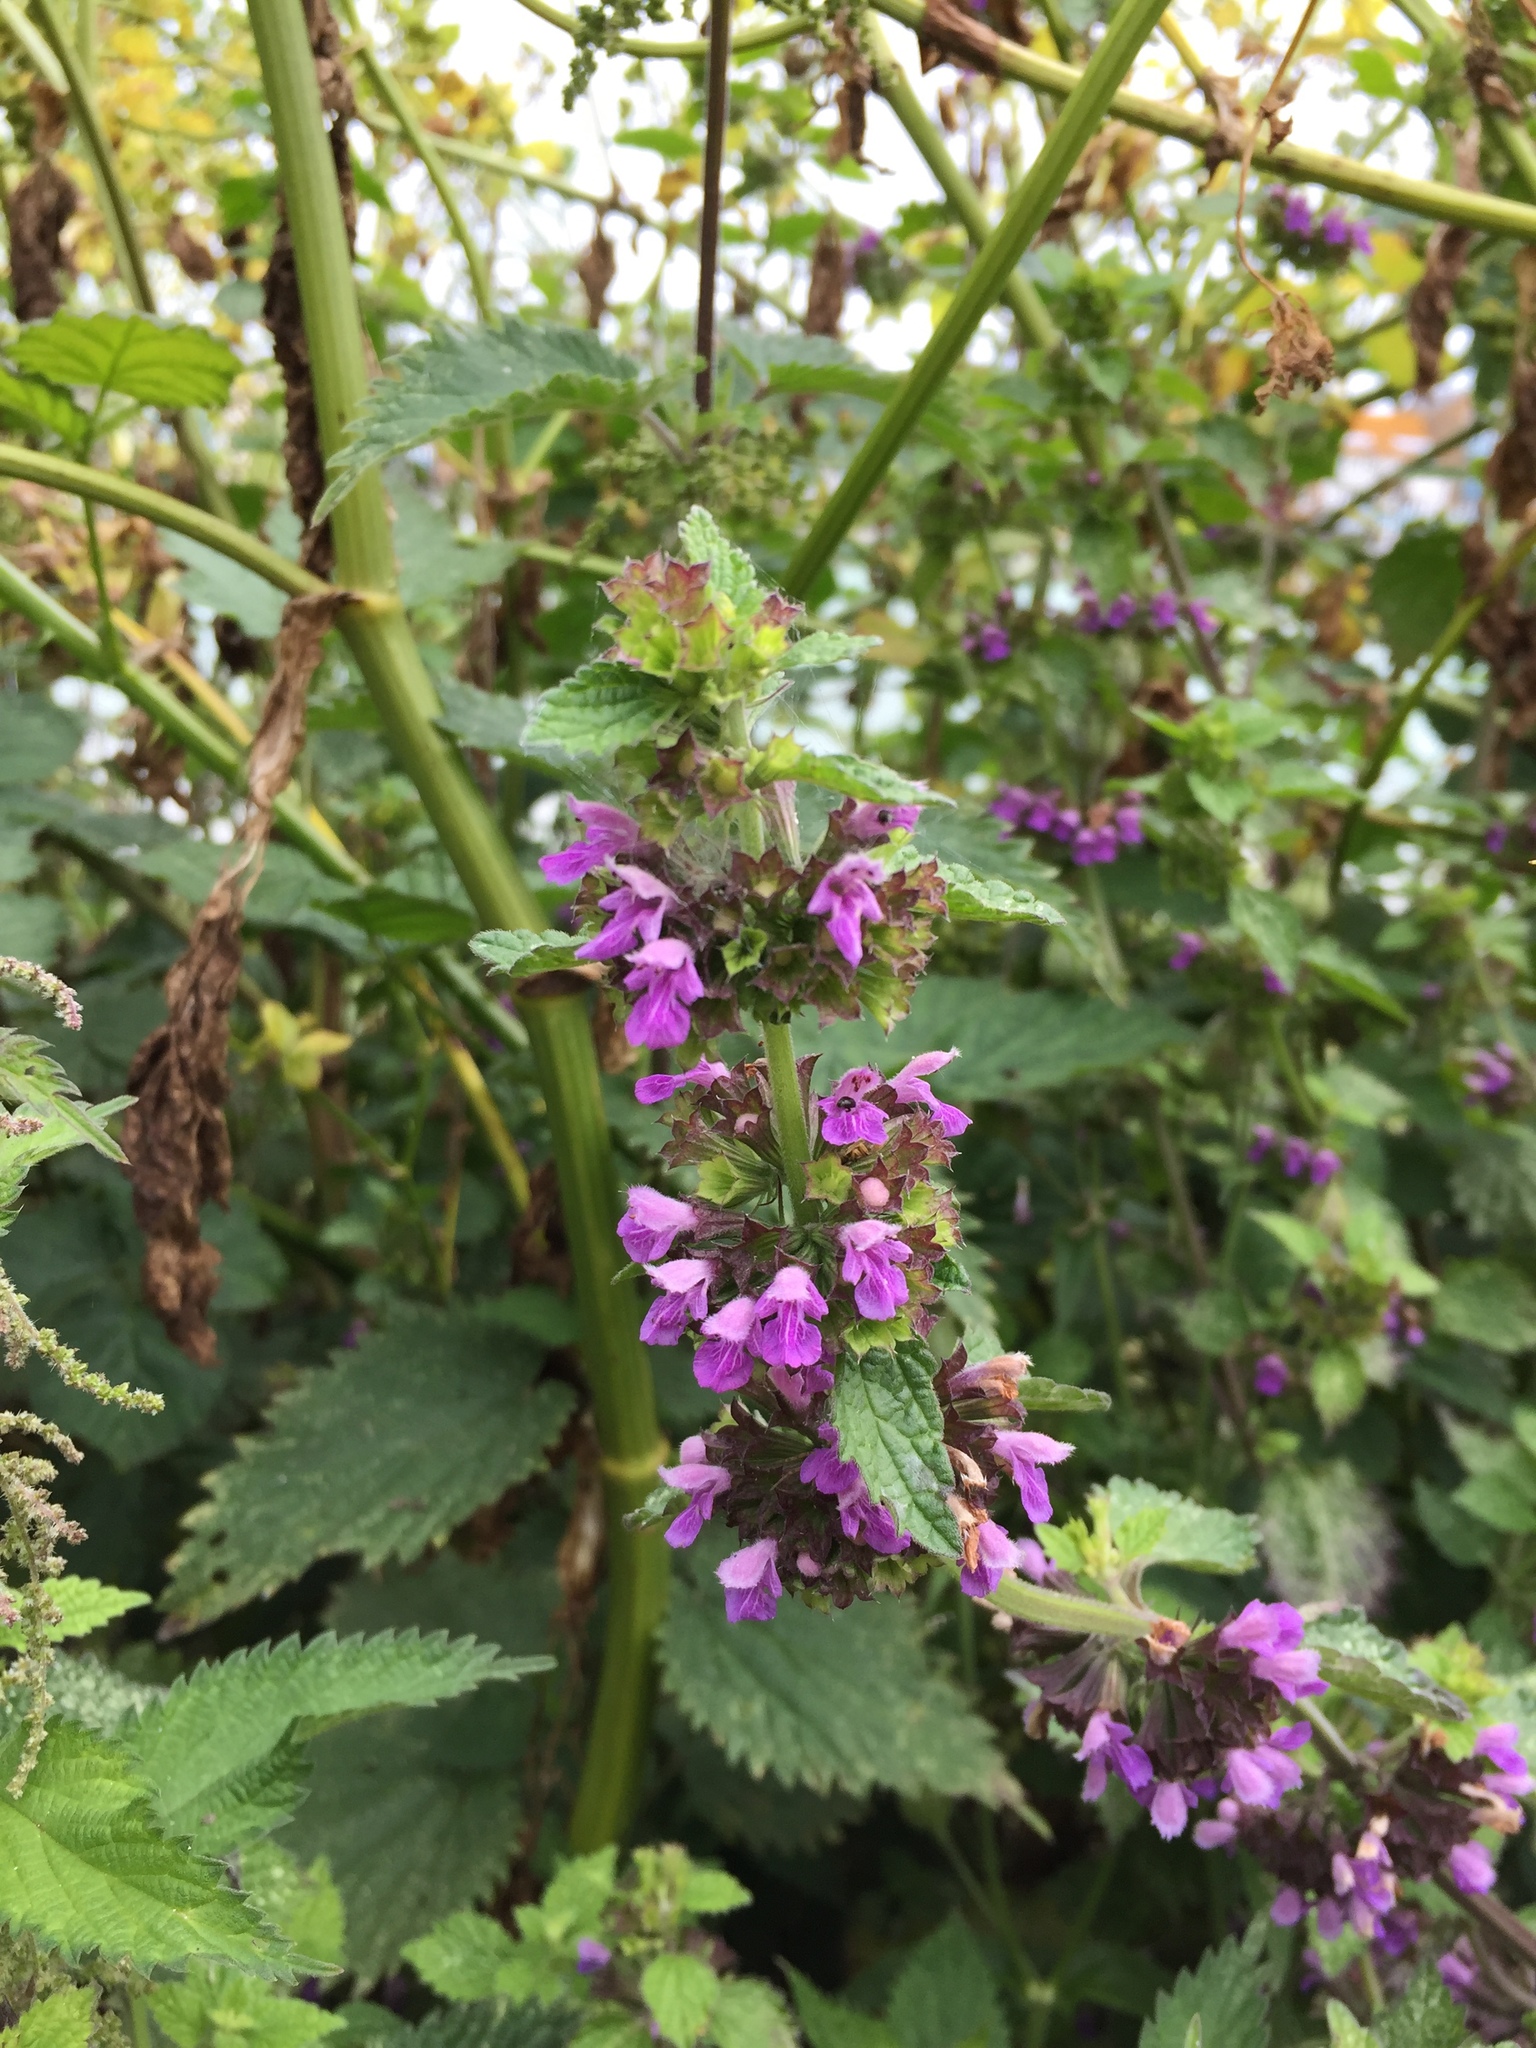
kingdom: Plantae
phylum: Tracheophyta
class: Magnoliopsida
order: Lamiales
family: Lamiaceae
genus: Ballota
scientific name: Ballota nigra
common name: Black horehound
